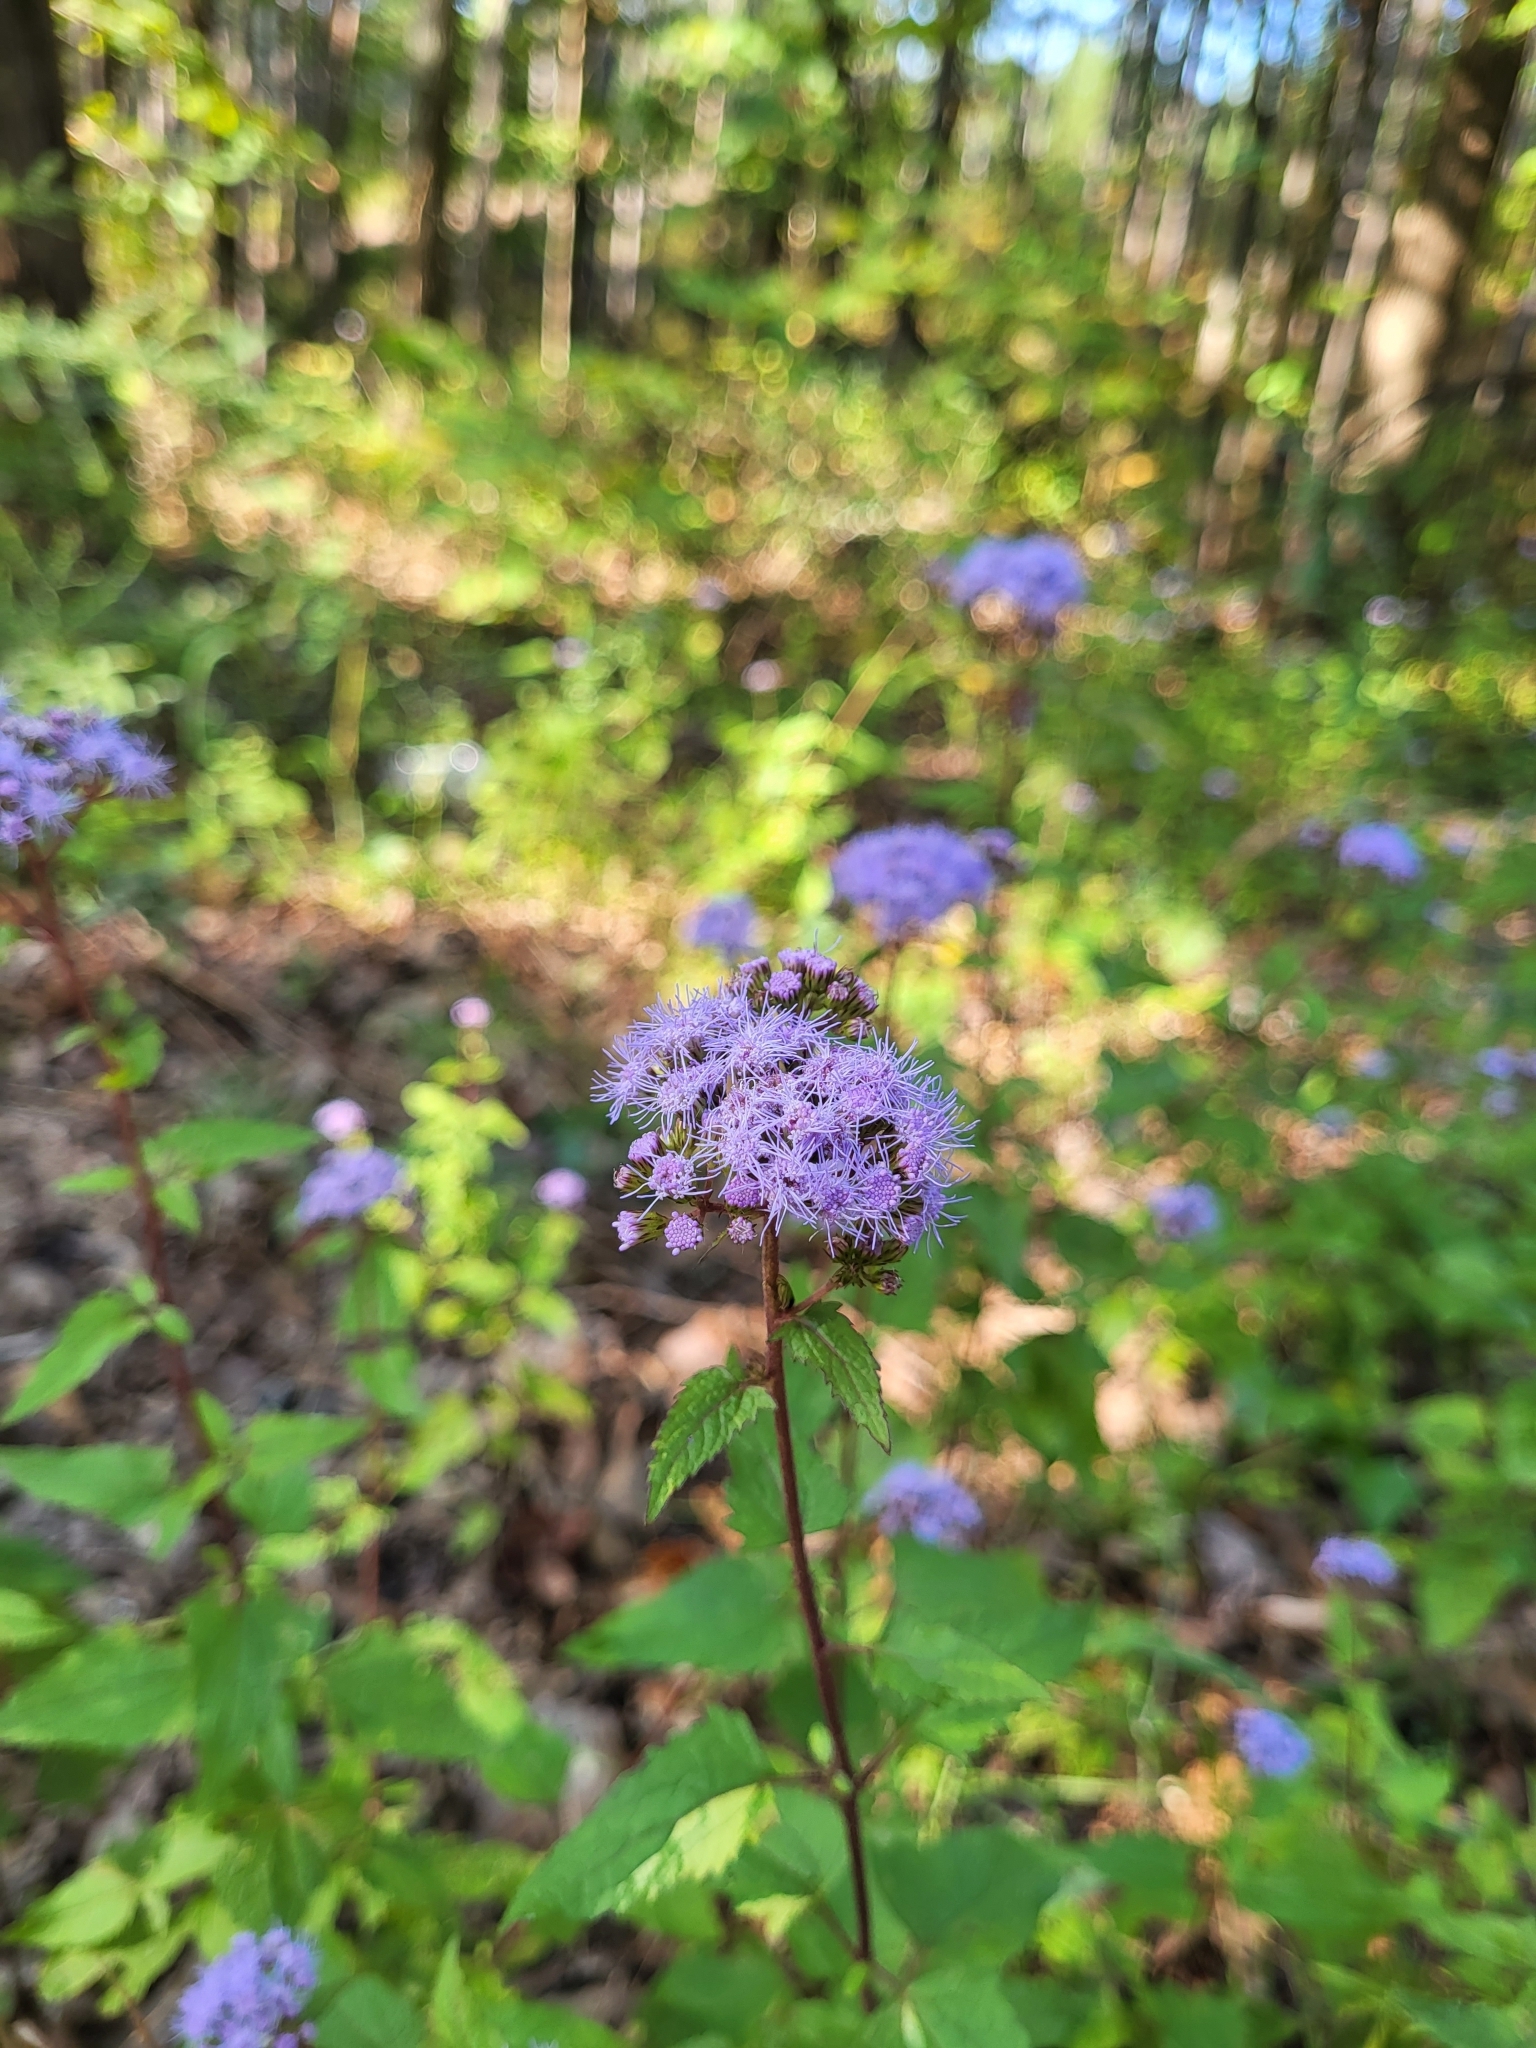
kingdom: Plantae
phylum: Tracheophyta
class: Magnoliopsida
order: Asterales
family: Asteraceae
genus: Conoclinium
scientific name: Conoclinium coelestinum
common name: Blue mistflower
